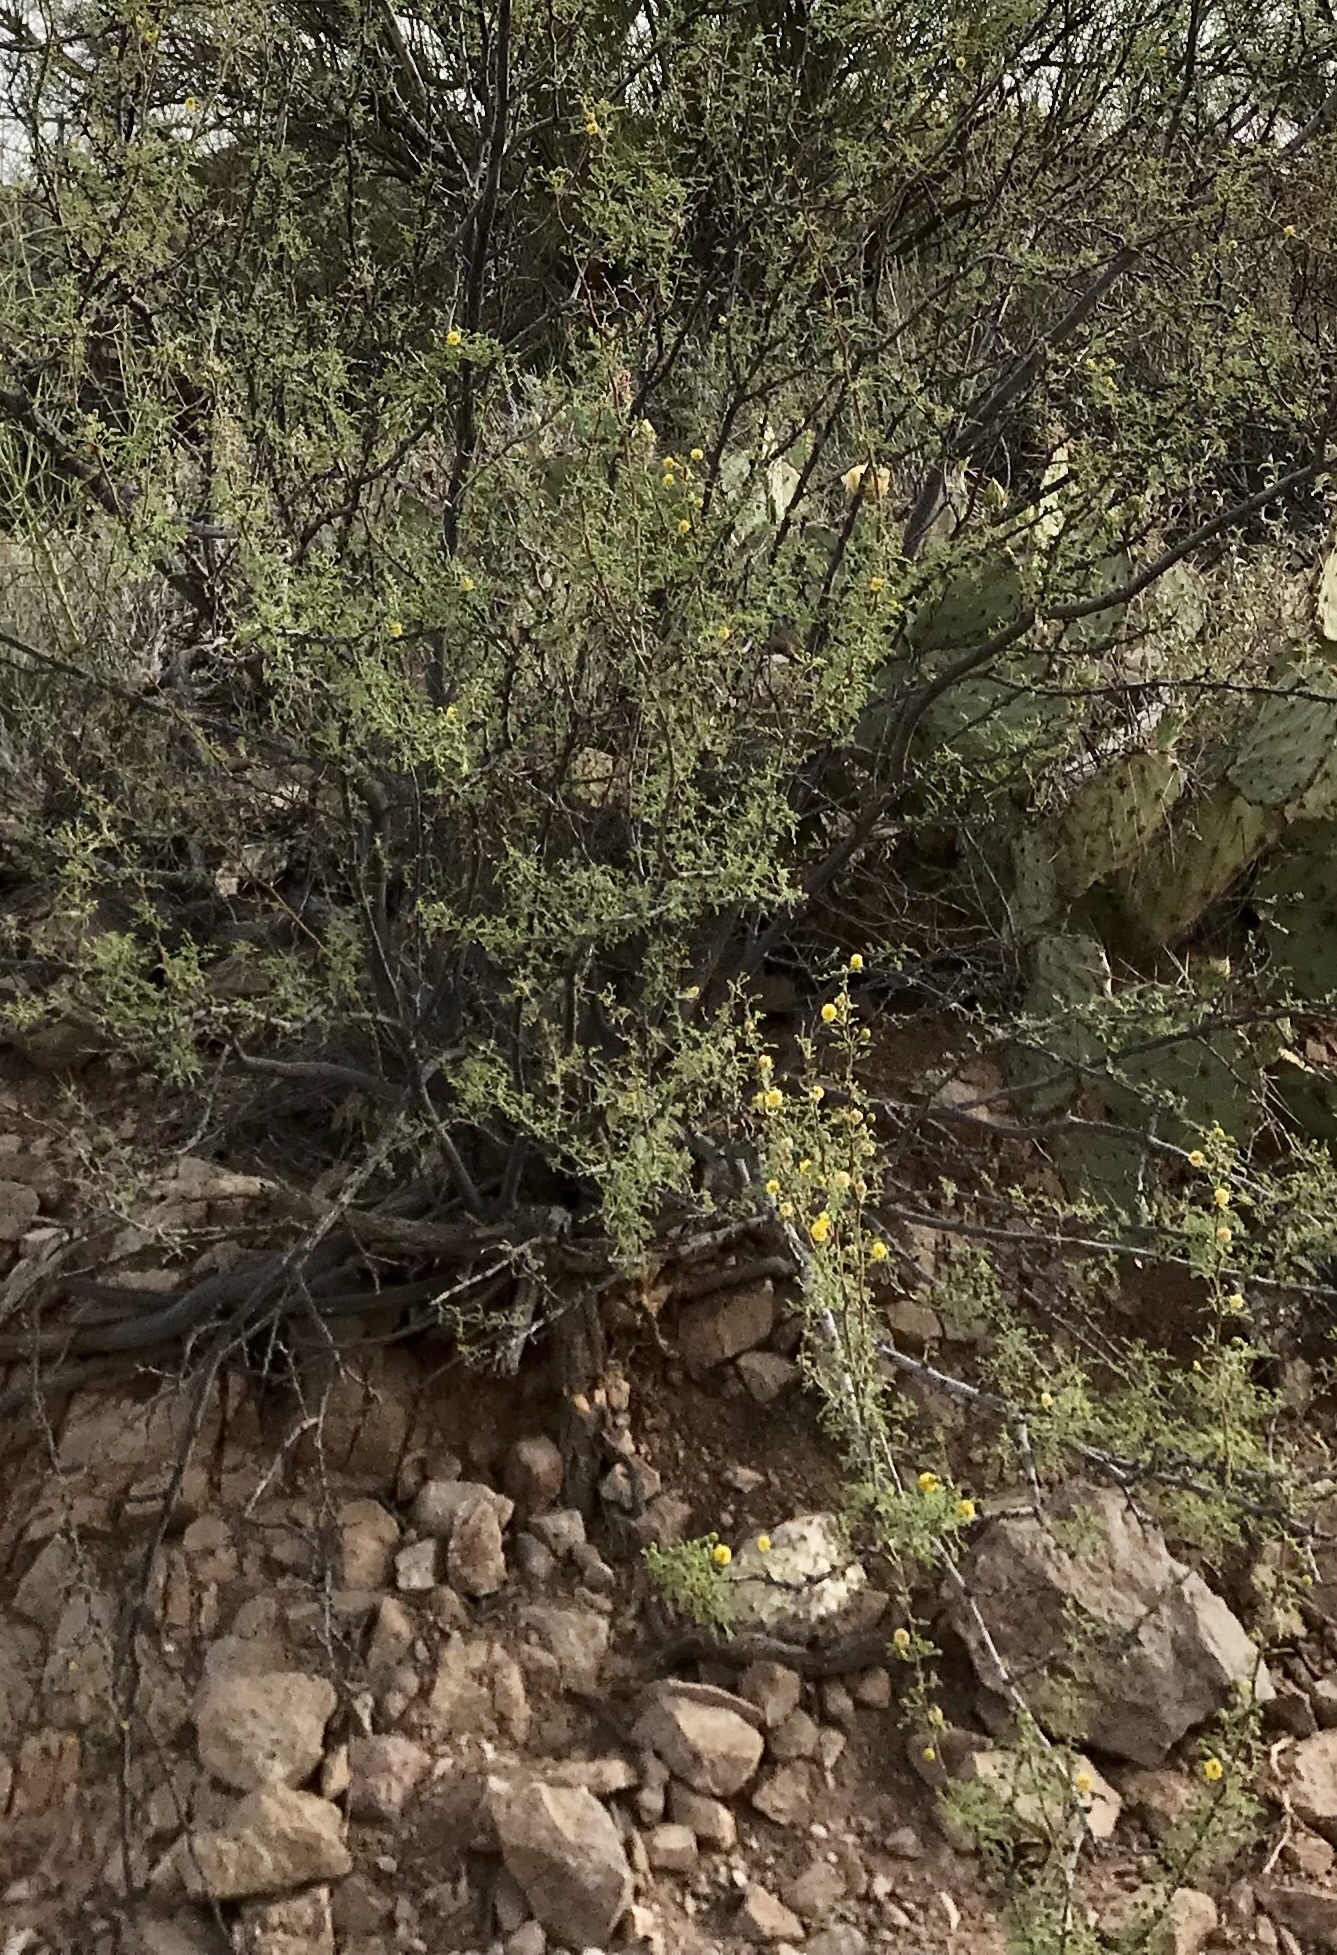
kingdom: Plantae
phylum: Tracheophyta
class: Magnoliopsida
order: Fabales
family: Fabaceae
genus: Vachellia
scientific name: Vachellia constricta
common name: Mescat acacia
